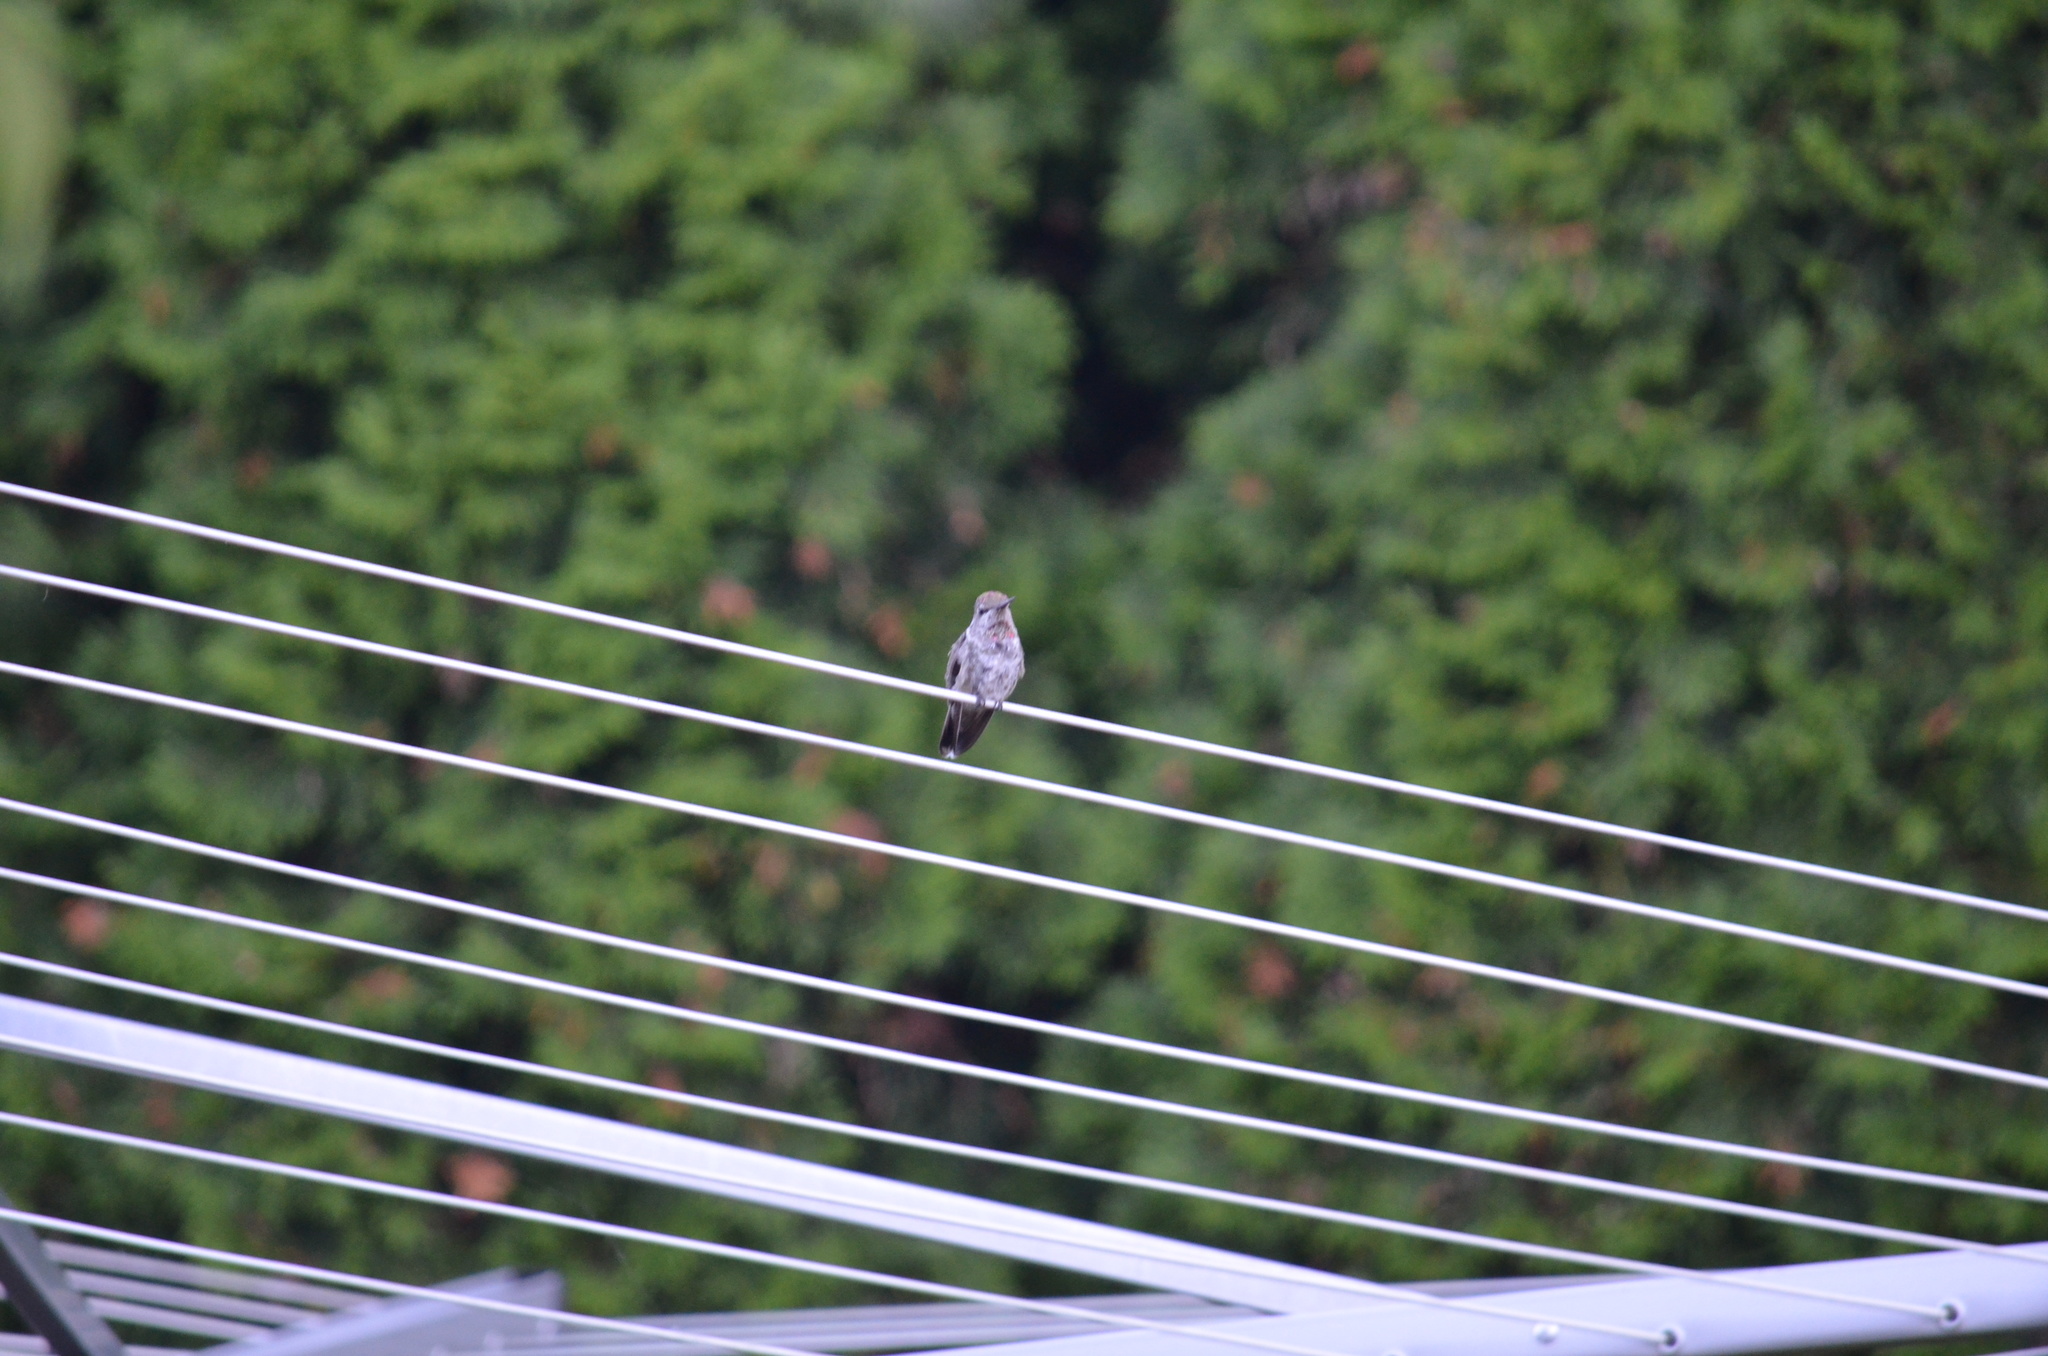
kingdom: Animalia
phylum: Chordata
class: Aves
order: Apodiformes
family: Trochilidae
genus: Calypte
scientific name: Calypte anna
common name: Anna's hummingbird
